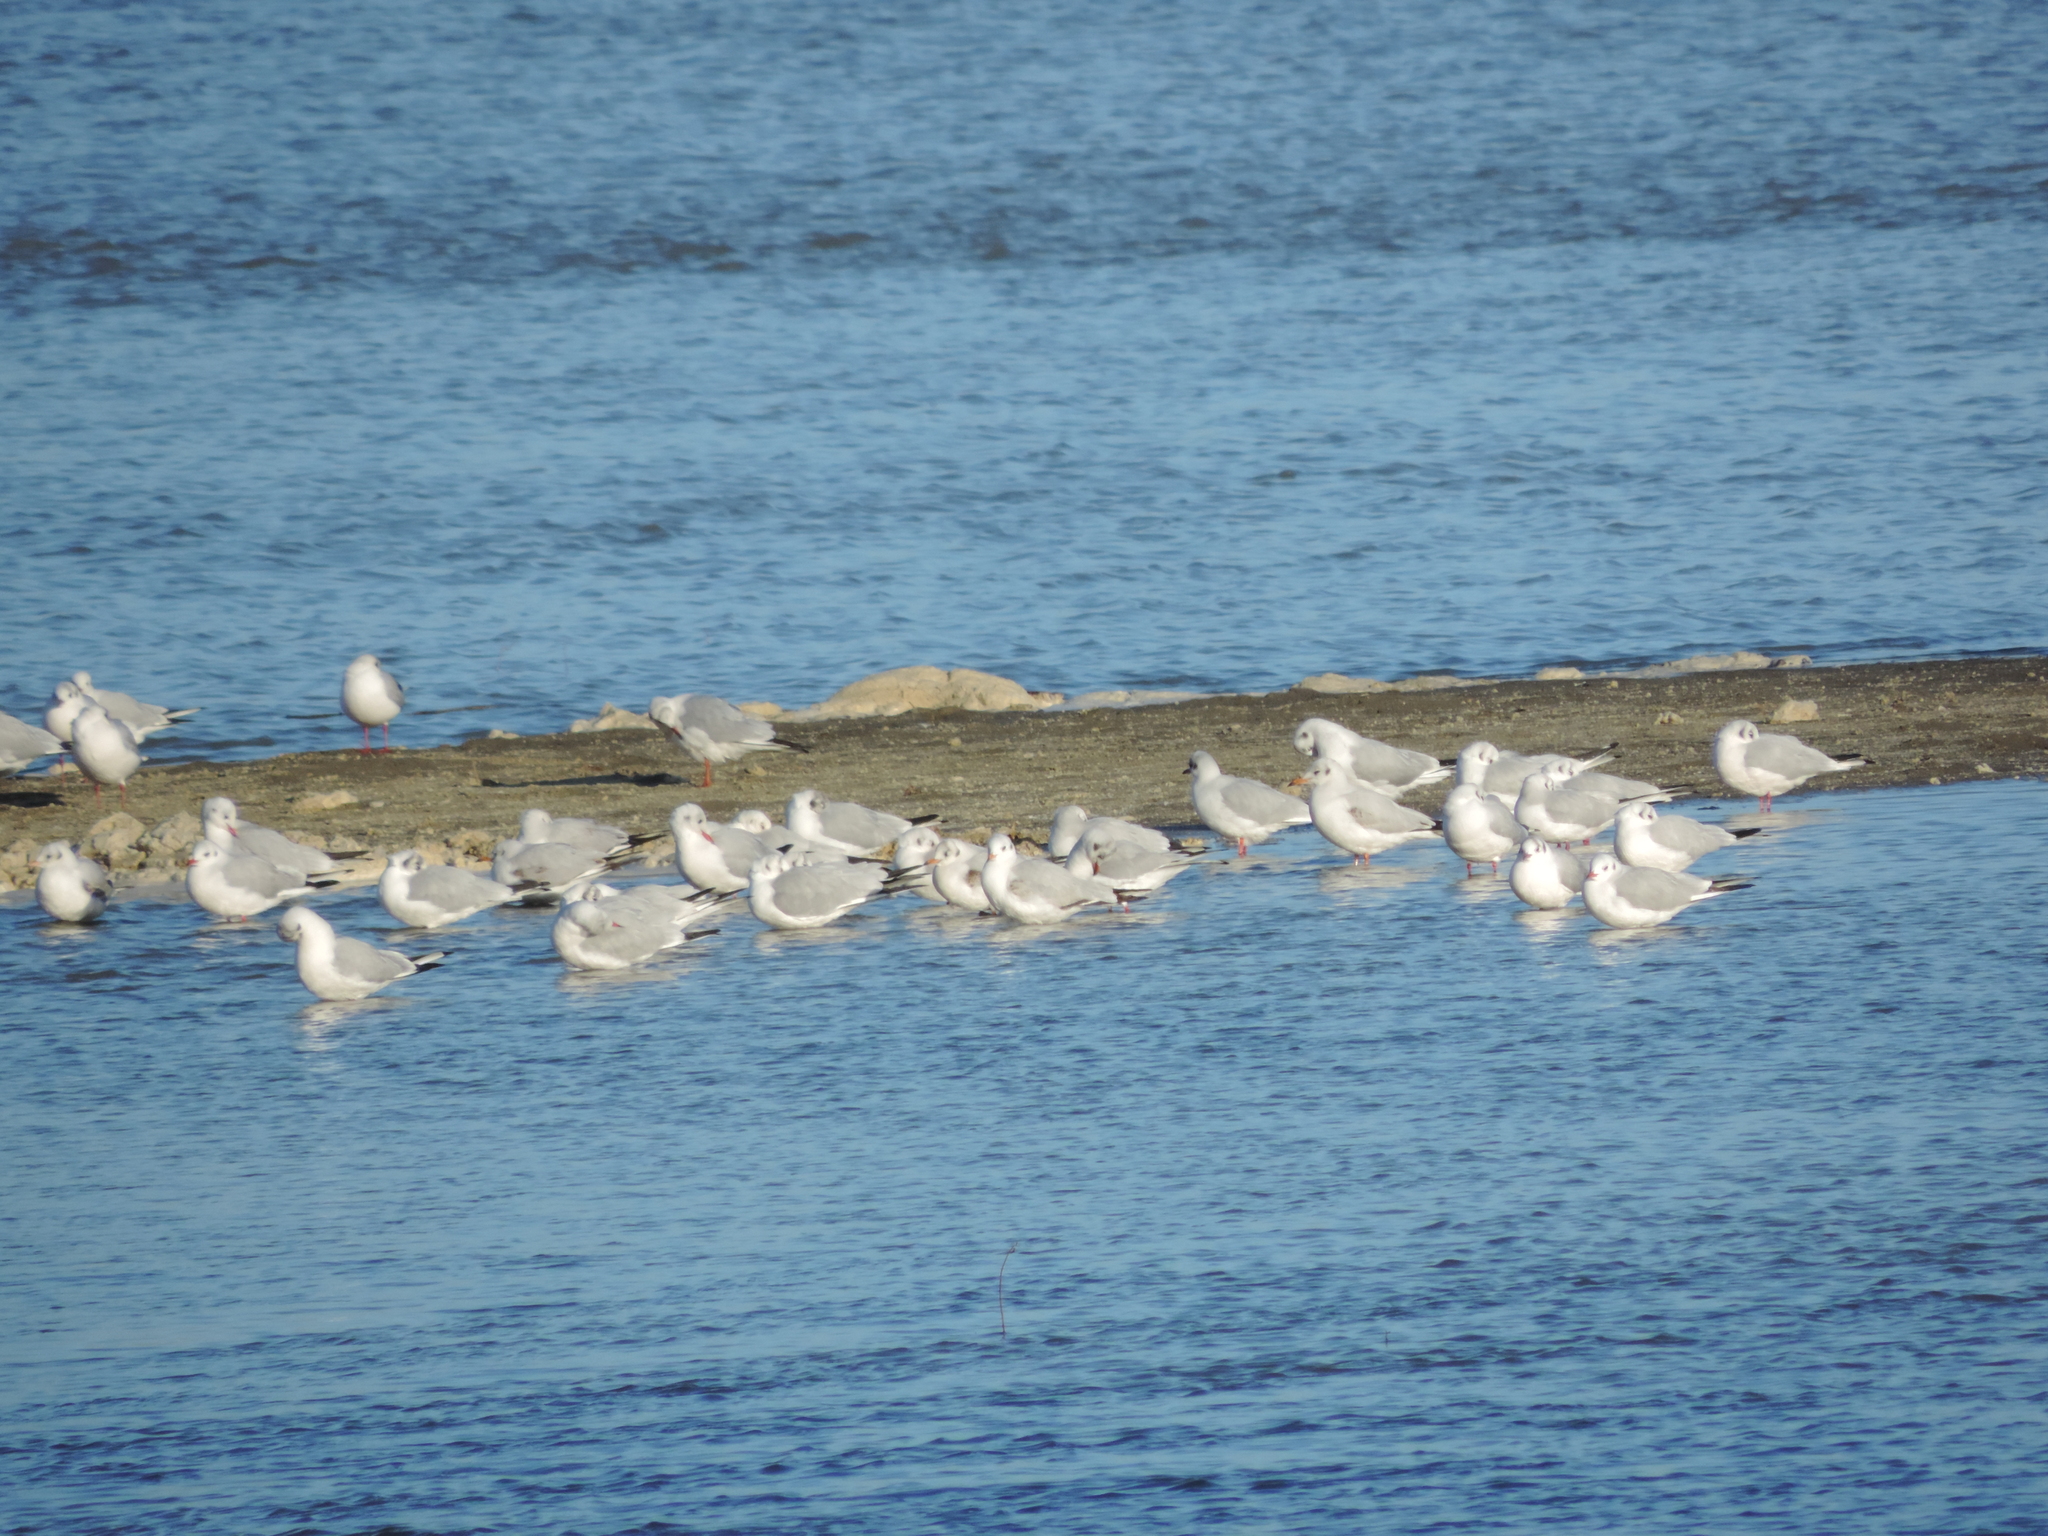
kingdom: Animalia
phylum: Chordata
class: Aves
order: Charadriiformes
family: Laridae
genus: Chroicocephalus
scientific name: Chroicocephalus ridibundus
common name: Black-headed gull
